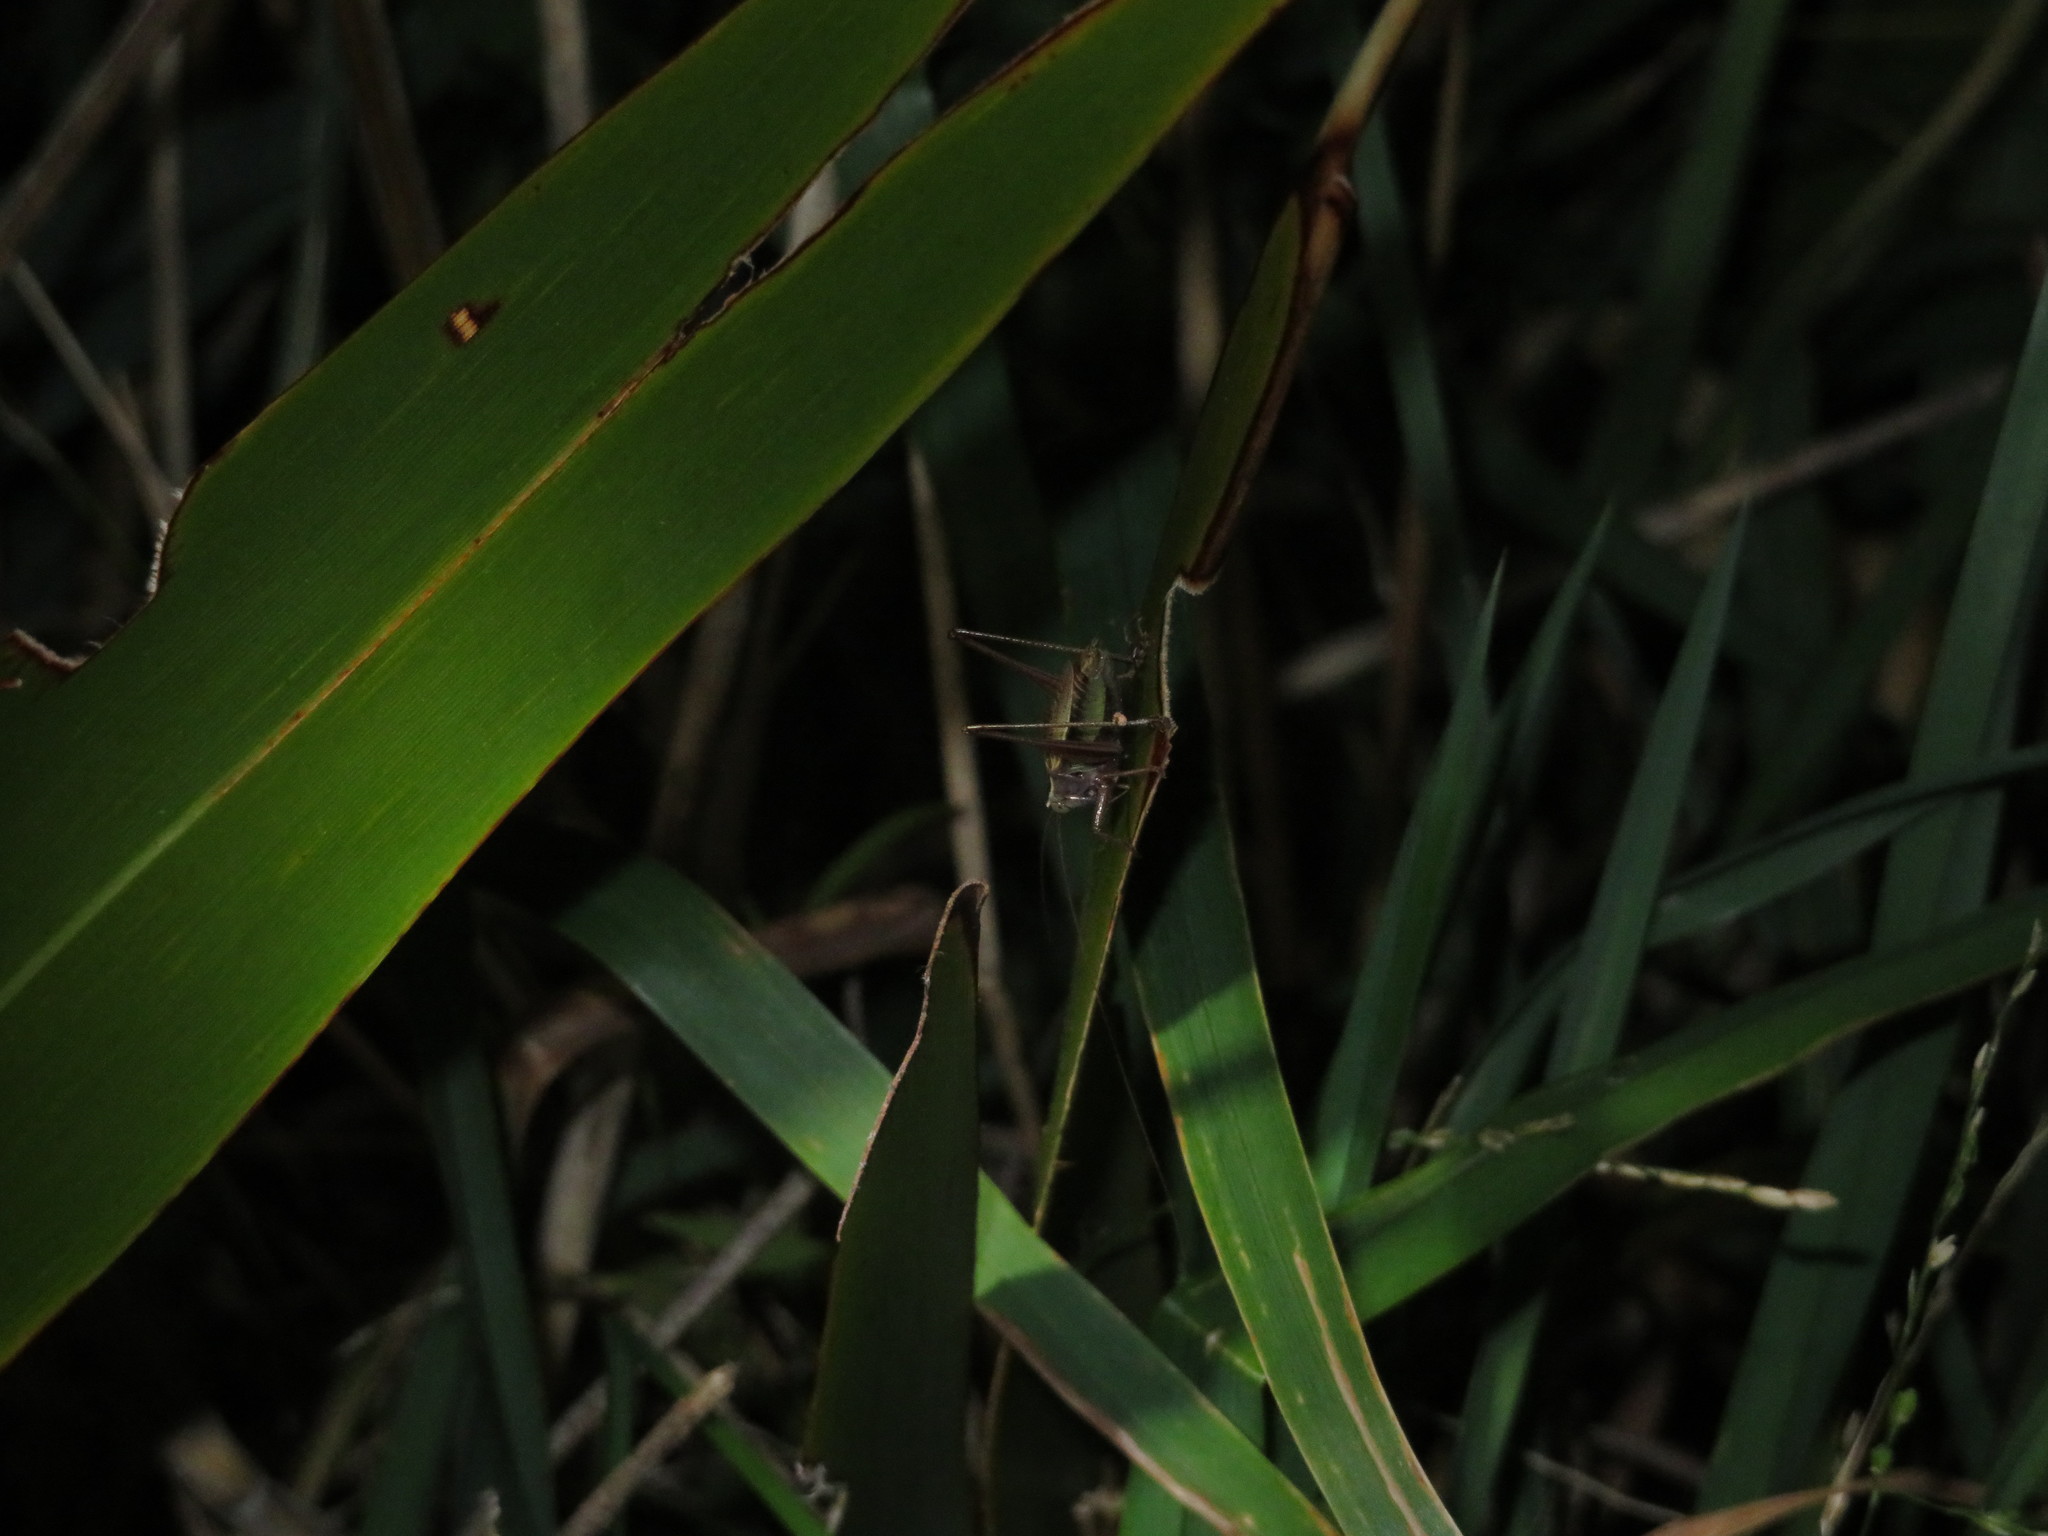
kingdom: Animalia
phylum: Arthropoda
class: Insecta
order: Orthoptera
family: Tettigoniidae
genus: Conocephalus
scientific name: Conocephalus albescens
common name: Whitish meadow katydid
